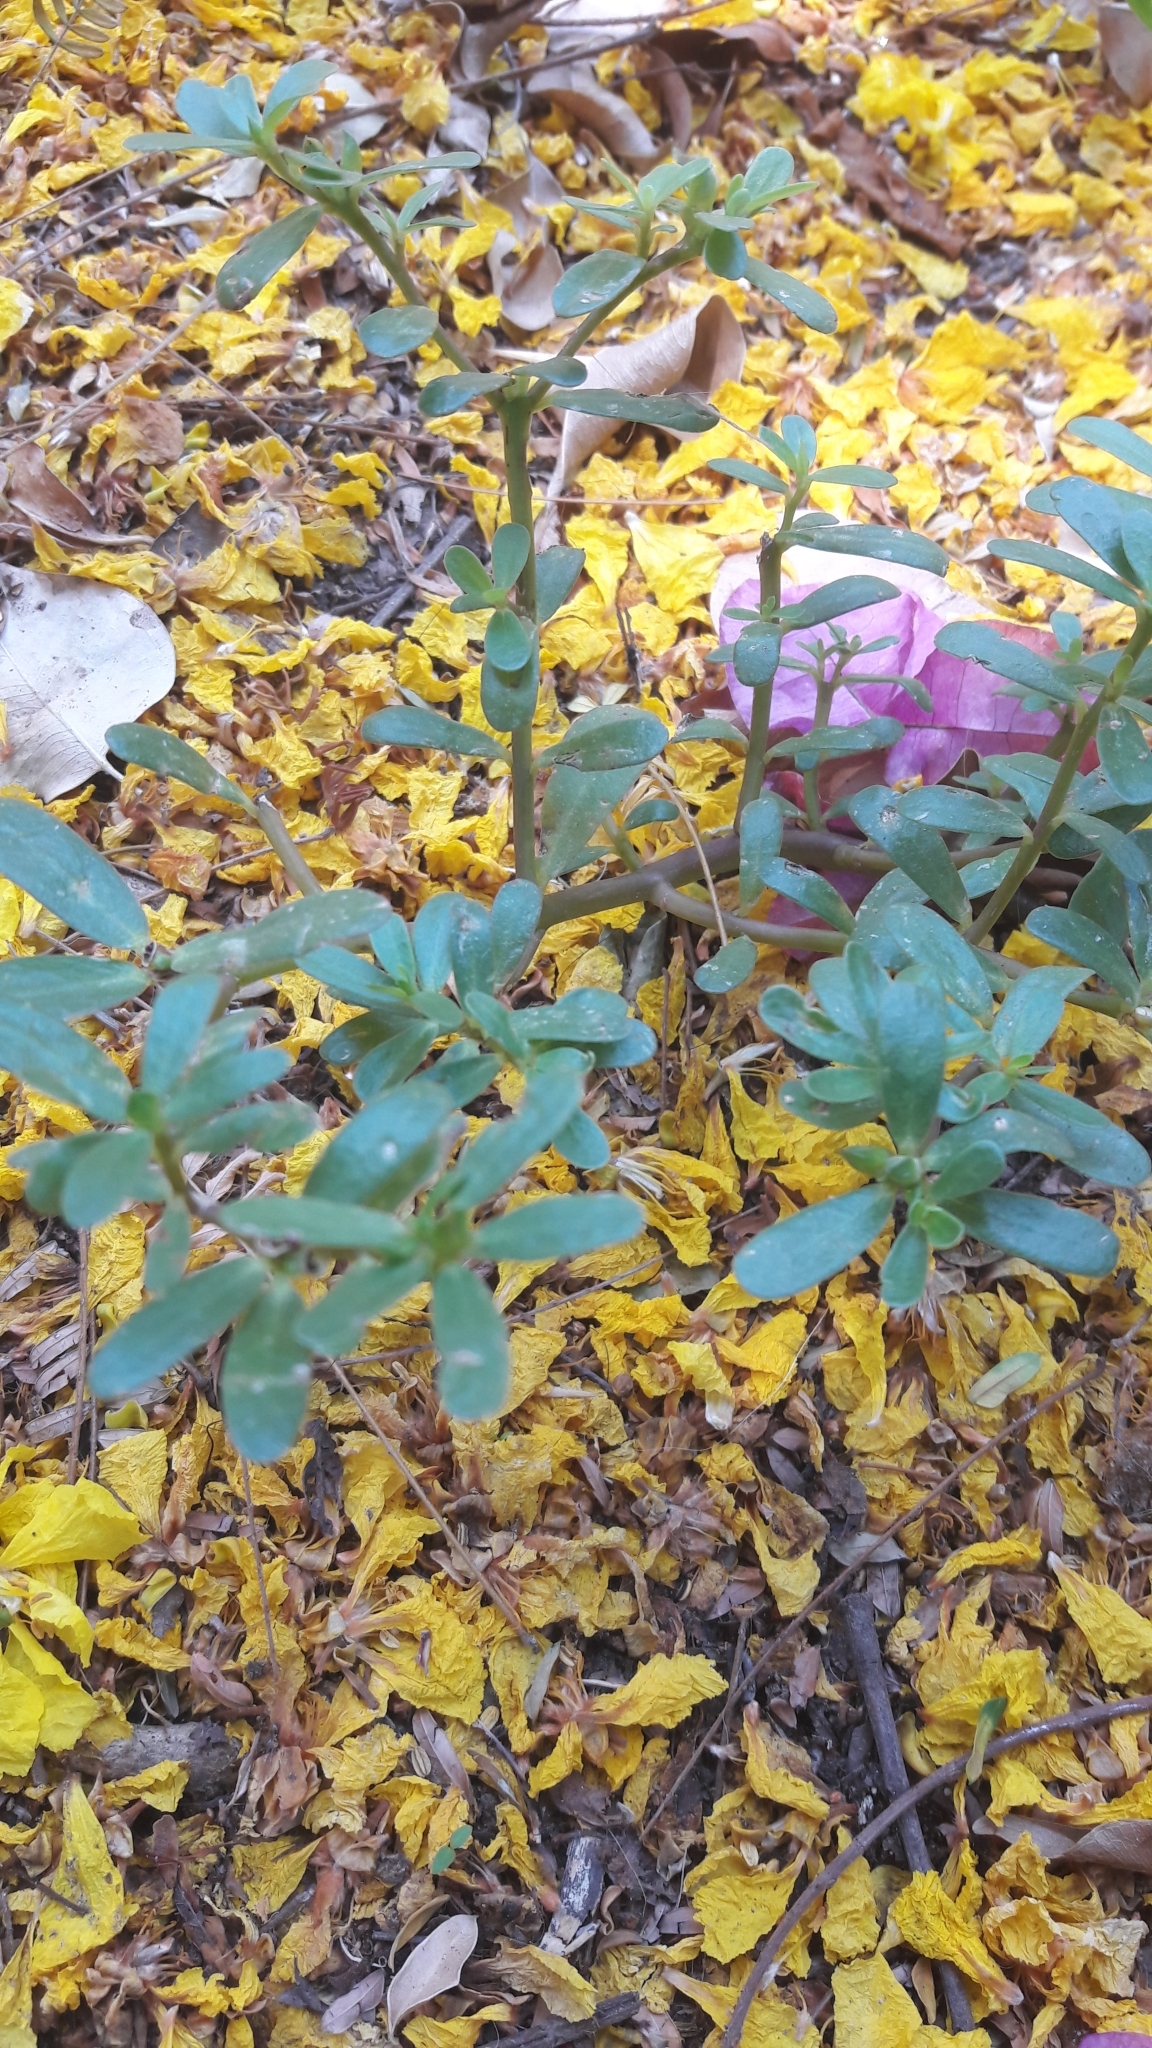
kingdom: Plantae
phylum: Tracheophyta
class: Magnoliopsida
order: Caryophyllales
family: Portulacaceae
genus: Portulaca
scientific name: Portulaca oleracea
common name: Common purslane
